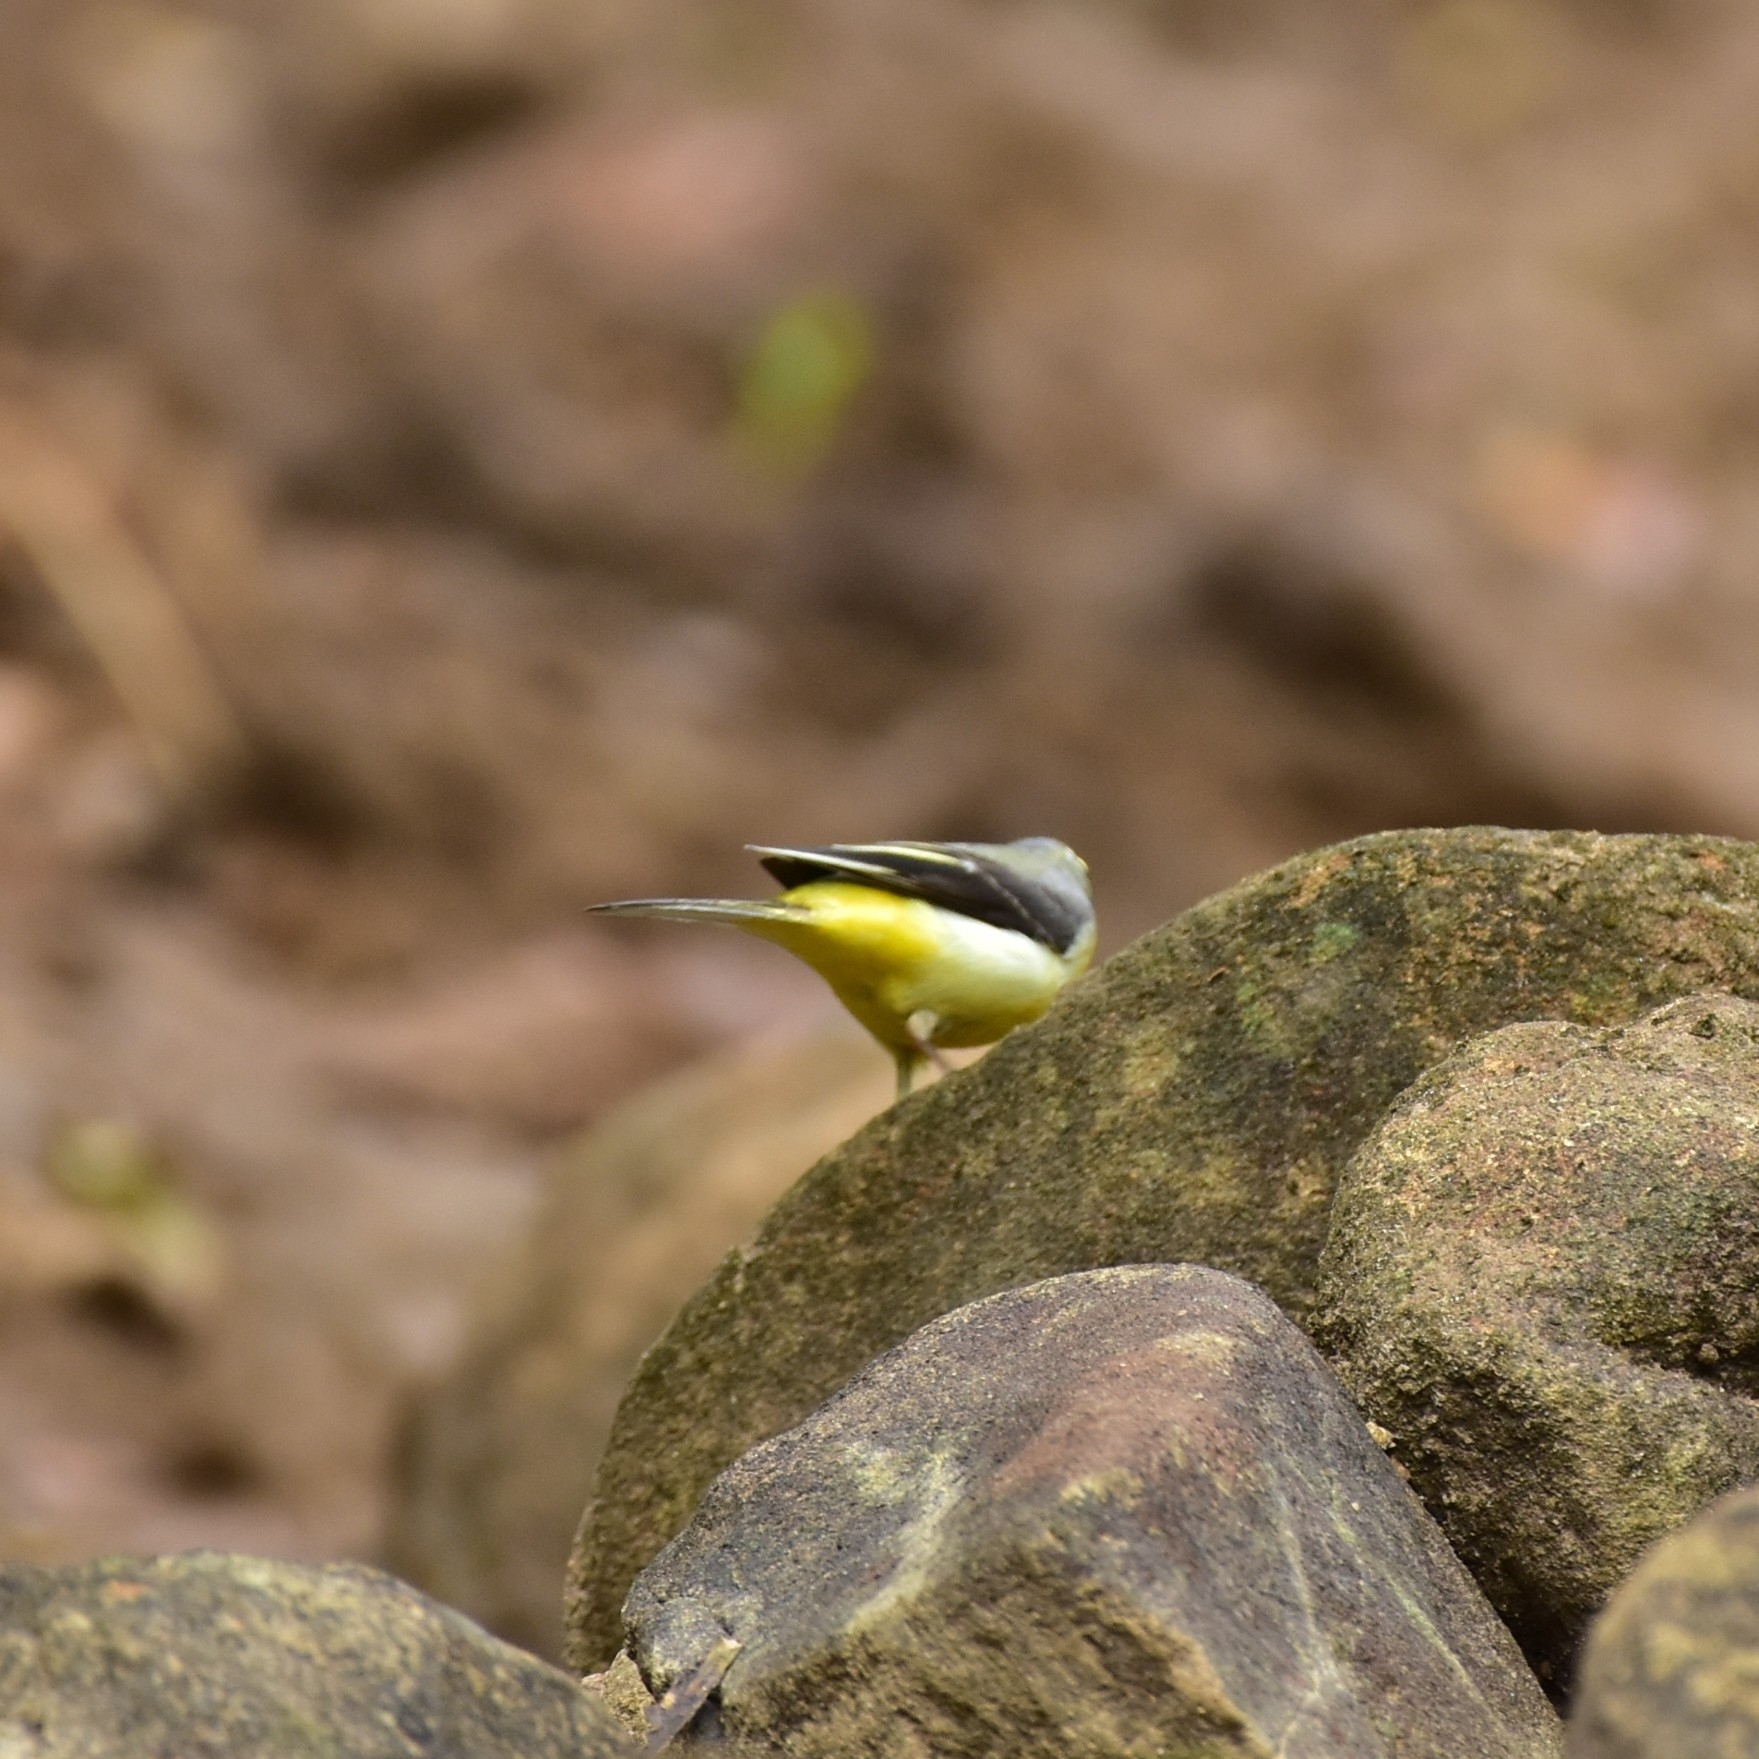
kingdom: Animalia
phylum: Chordata
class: Aves
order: Passeriformes
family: Motacillidae
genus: Motacilla
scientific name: Motacilla cinerea
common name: Grey wagtail
